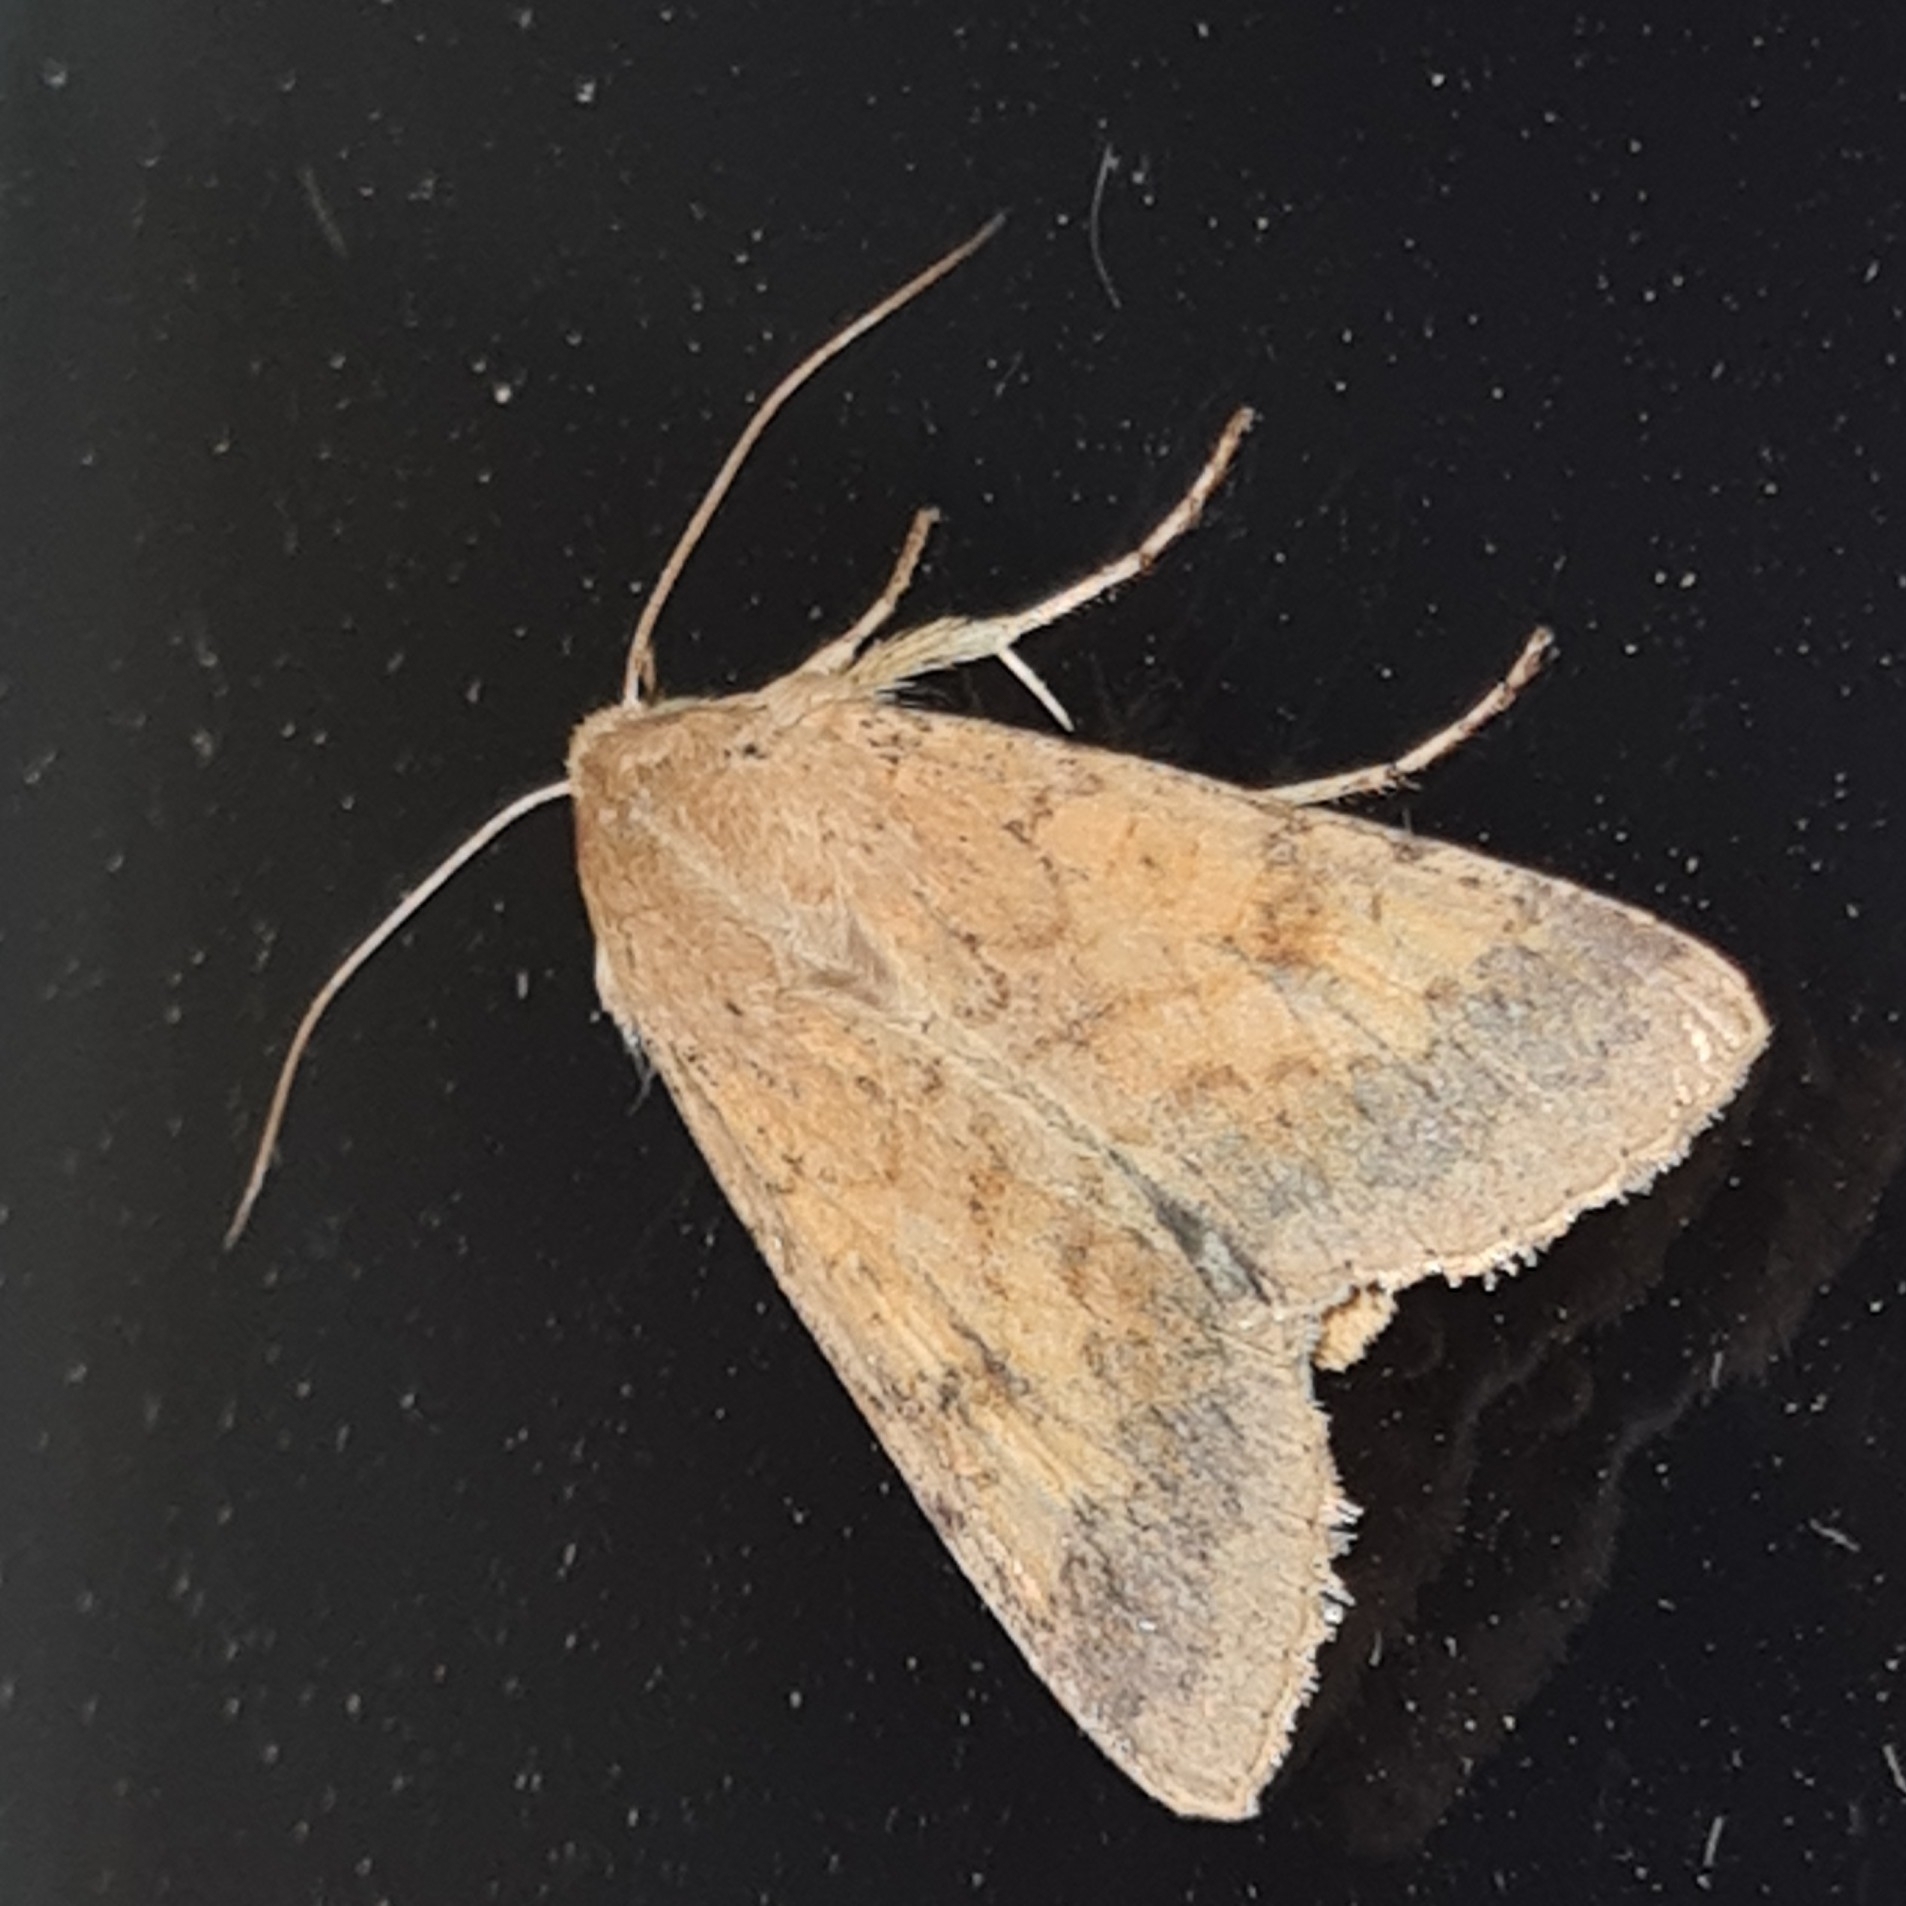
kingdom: Animalia
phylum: Arthropoda
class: Insecta
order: Lepidoptera
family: Noctuidae
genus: Helicoverpa
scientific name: Helicoverpa armigera
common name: Cotton bollworm
